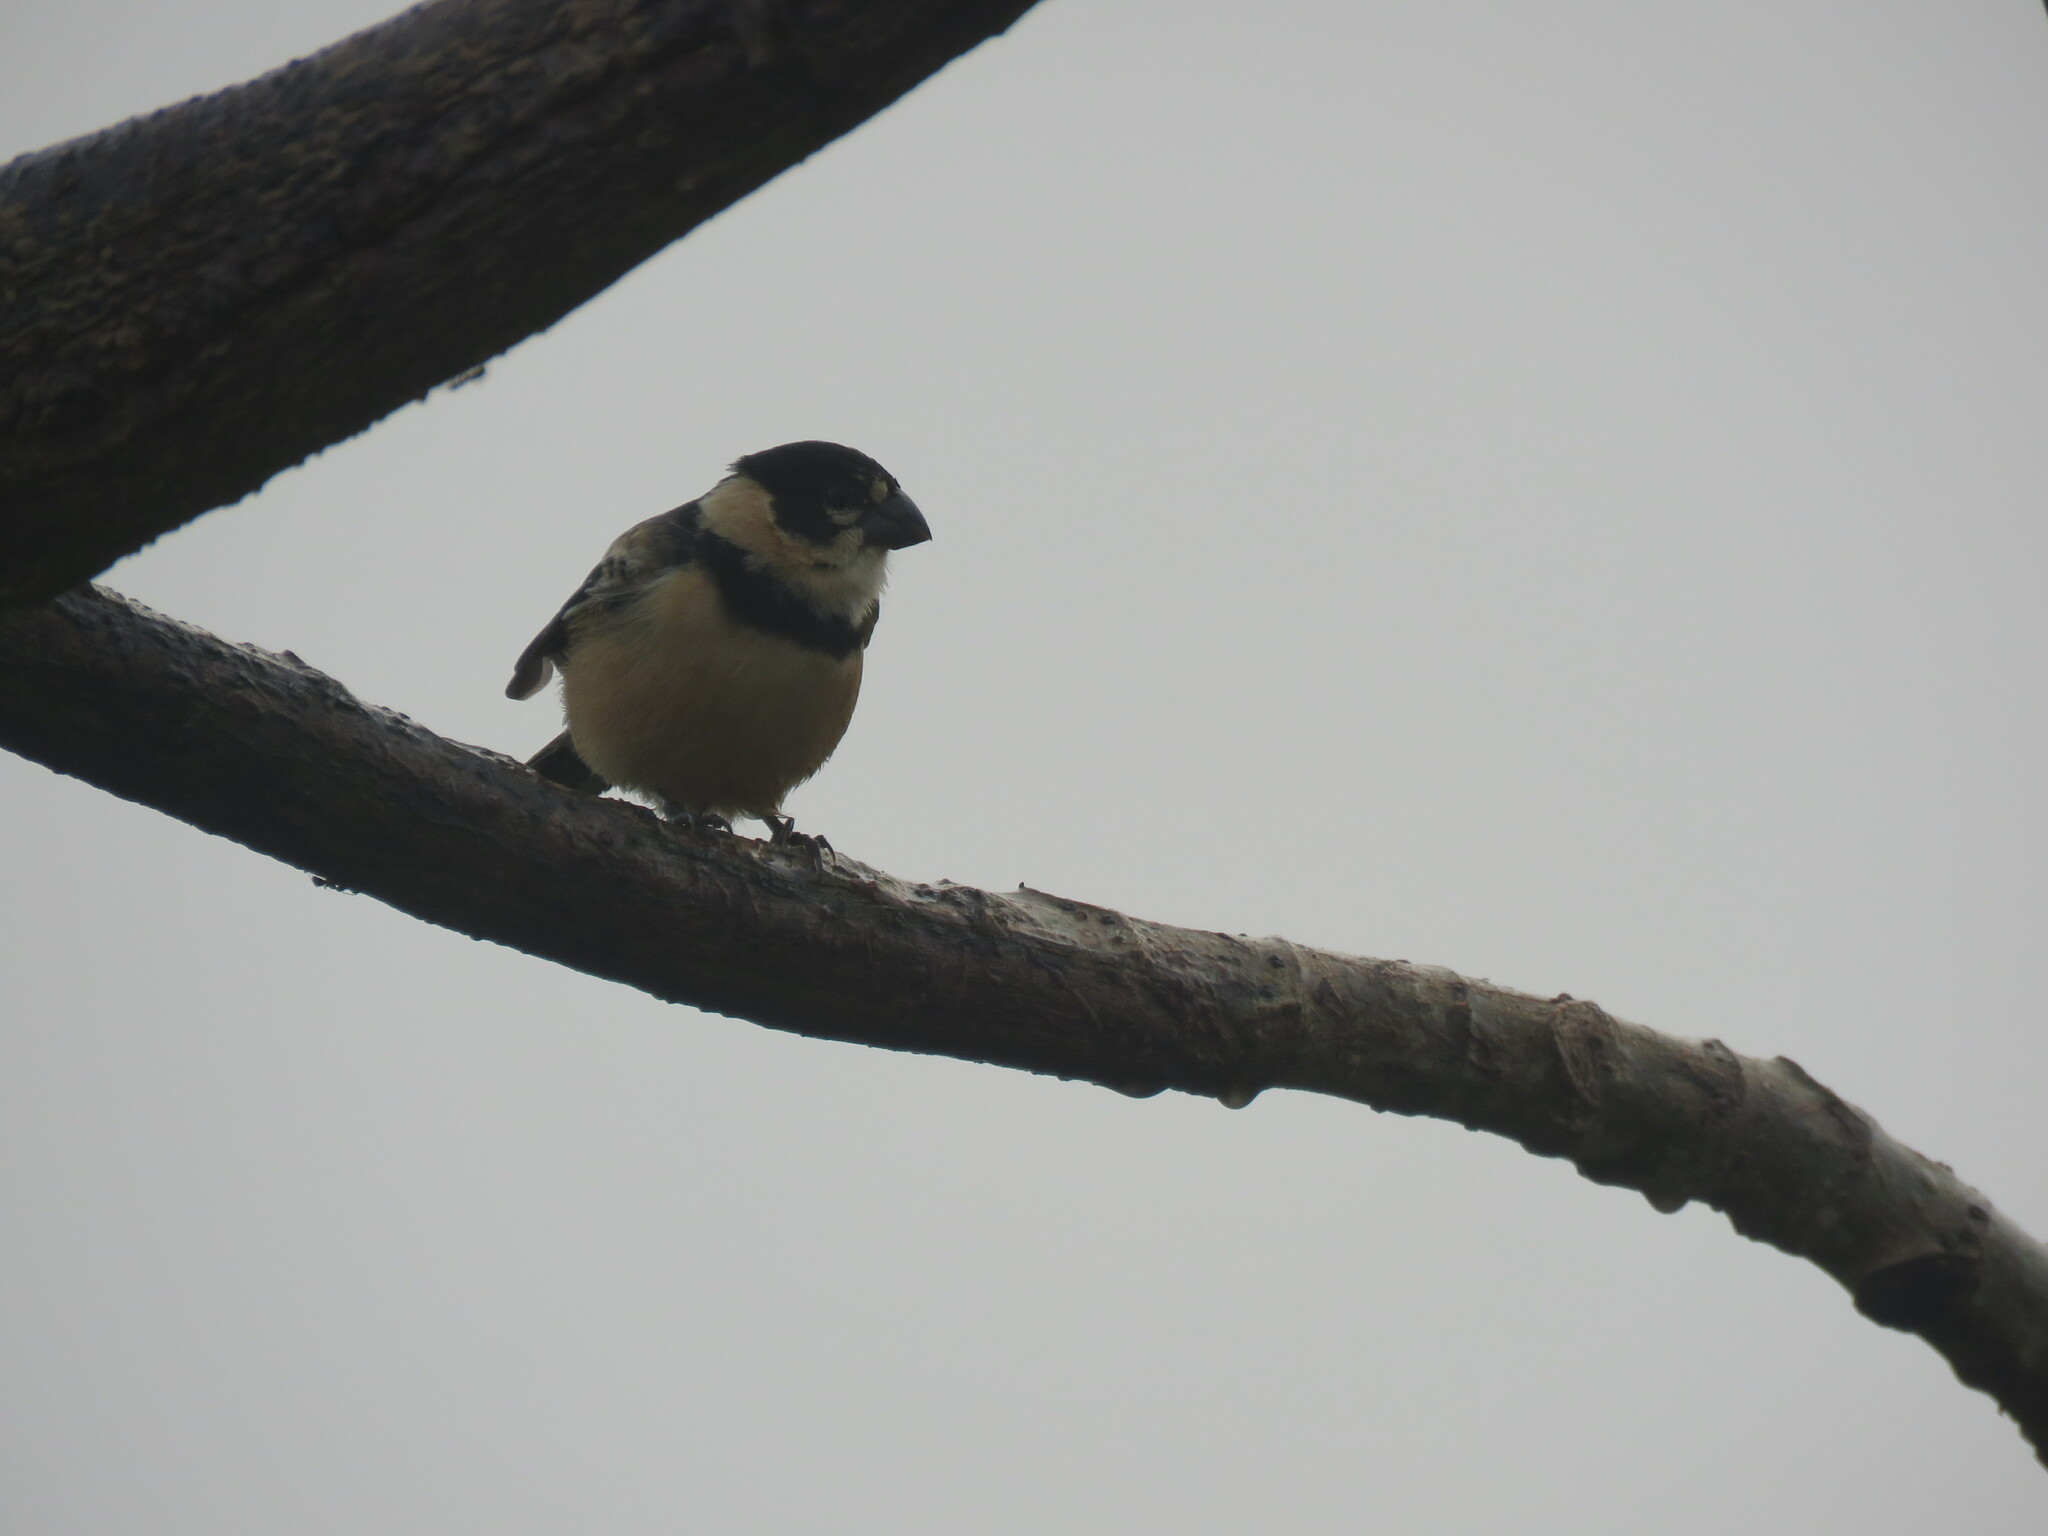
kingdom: Animalia
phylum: Chordata
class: Aves
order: Passeriformes
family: Thraupidae
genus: Sporophila
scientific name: Sporophila collaris
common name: Rusty-collared seedeater
